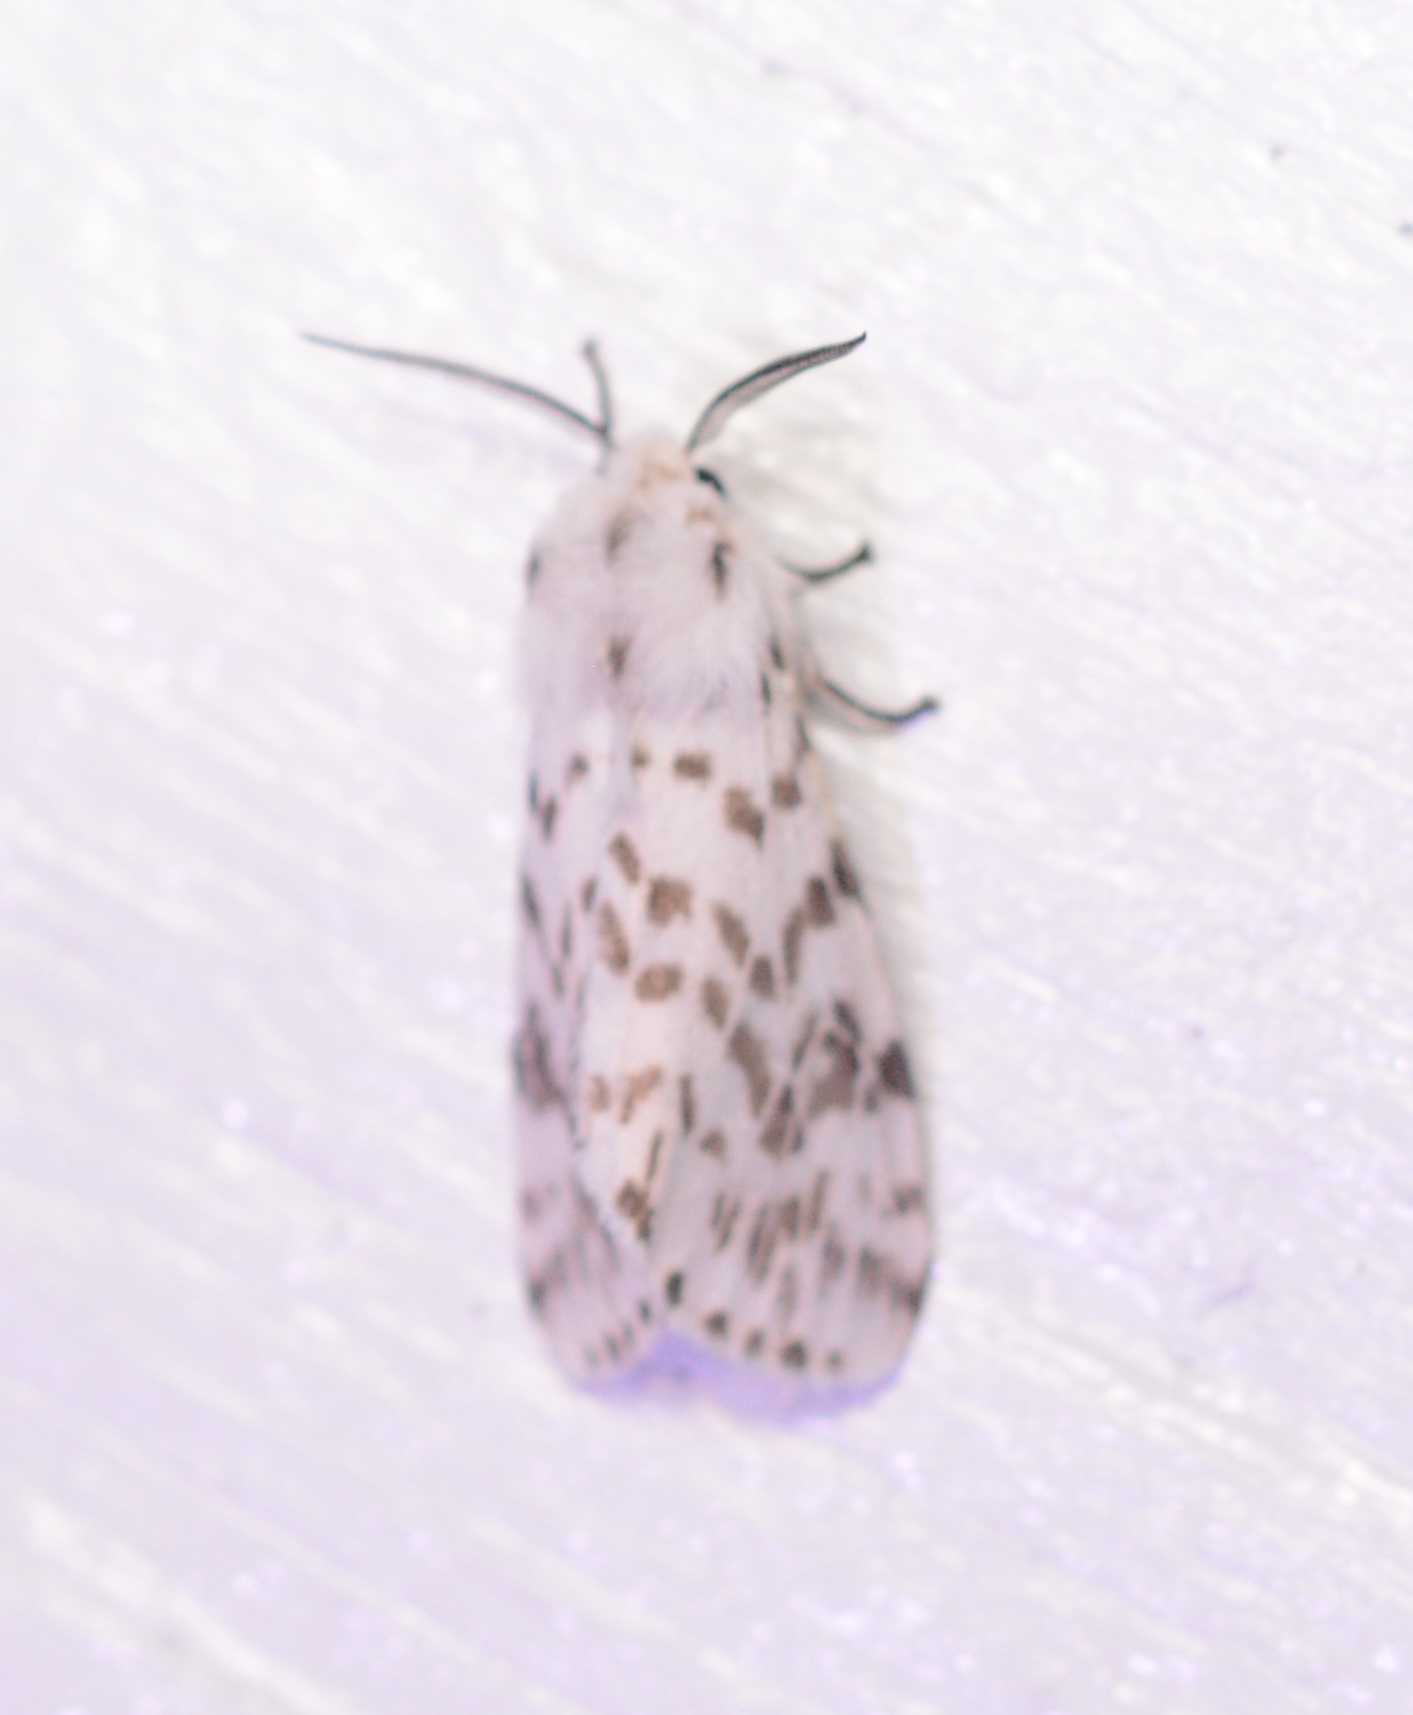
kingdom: Animalia
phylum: Arthropoda
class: Insecta
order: Lepidoptera
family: Erebidae
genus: Hyphantria
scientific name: Hyphantria cunea
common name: American white moth
